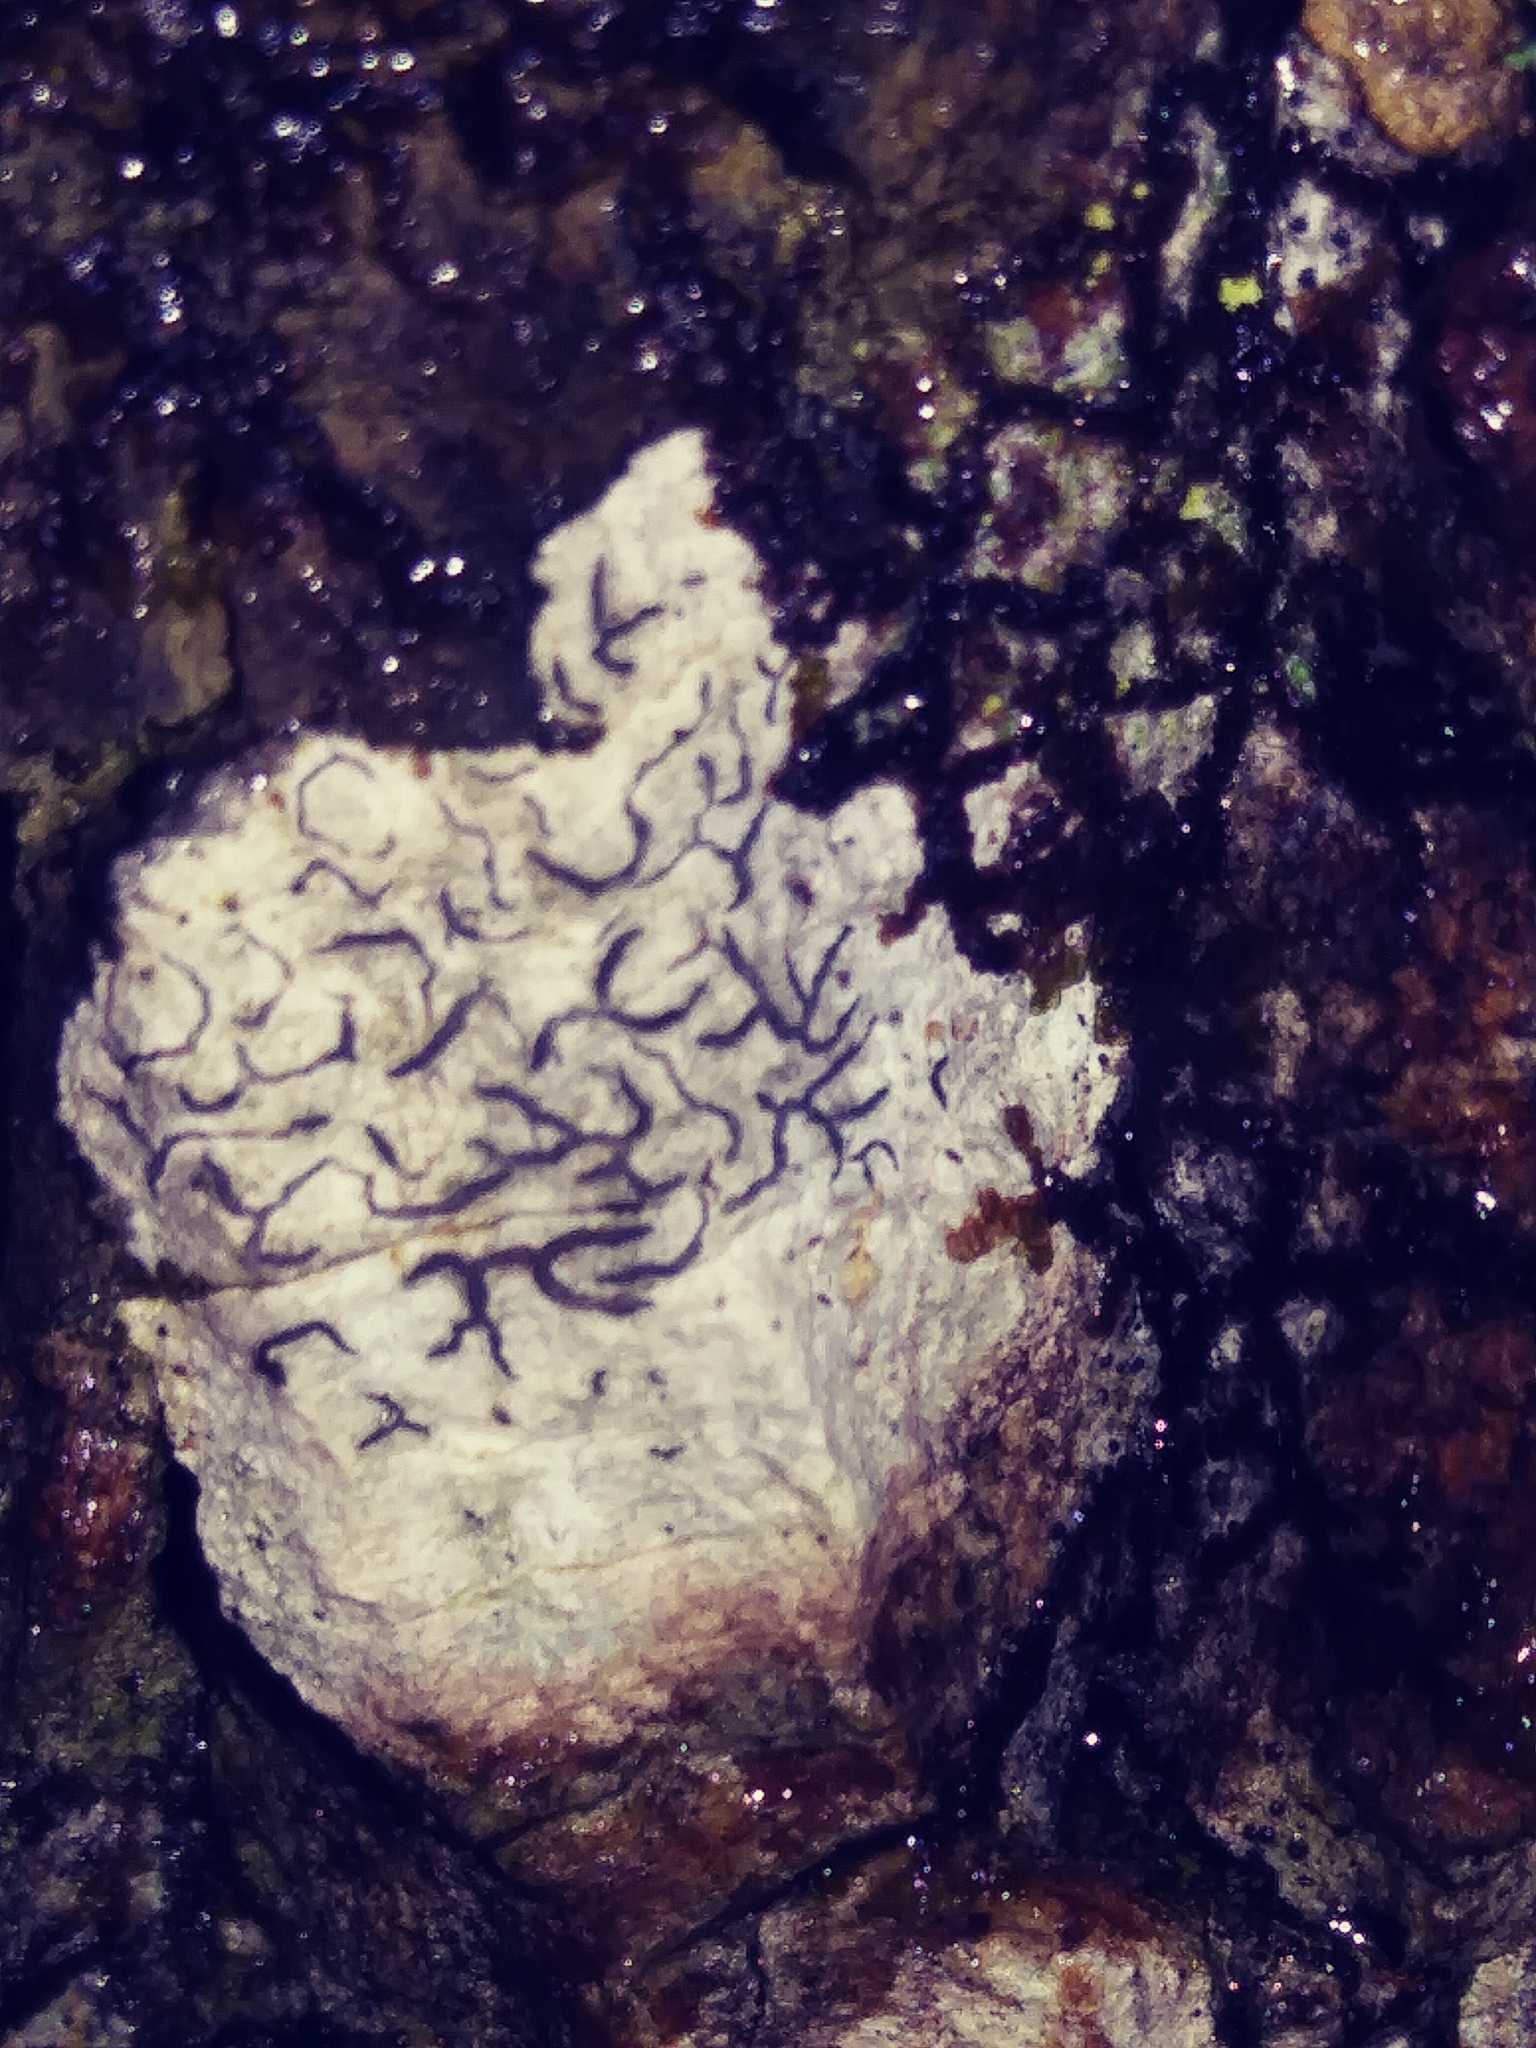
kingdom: Fungi
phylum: Ascomycota
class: Lecanoromycetes
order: Ostropales
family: Graphidaceae
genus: Graphis
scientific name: Graphis scripta
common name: Script lichen
